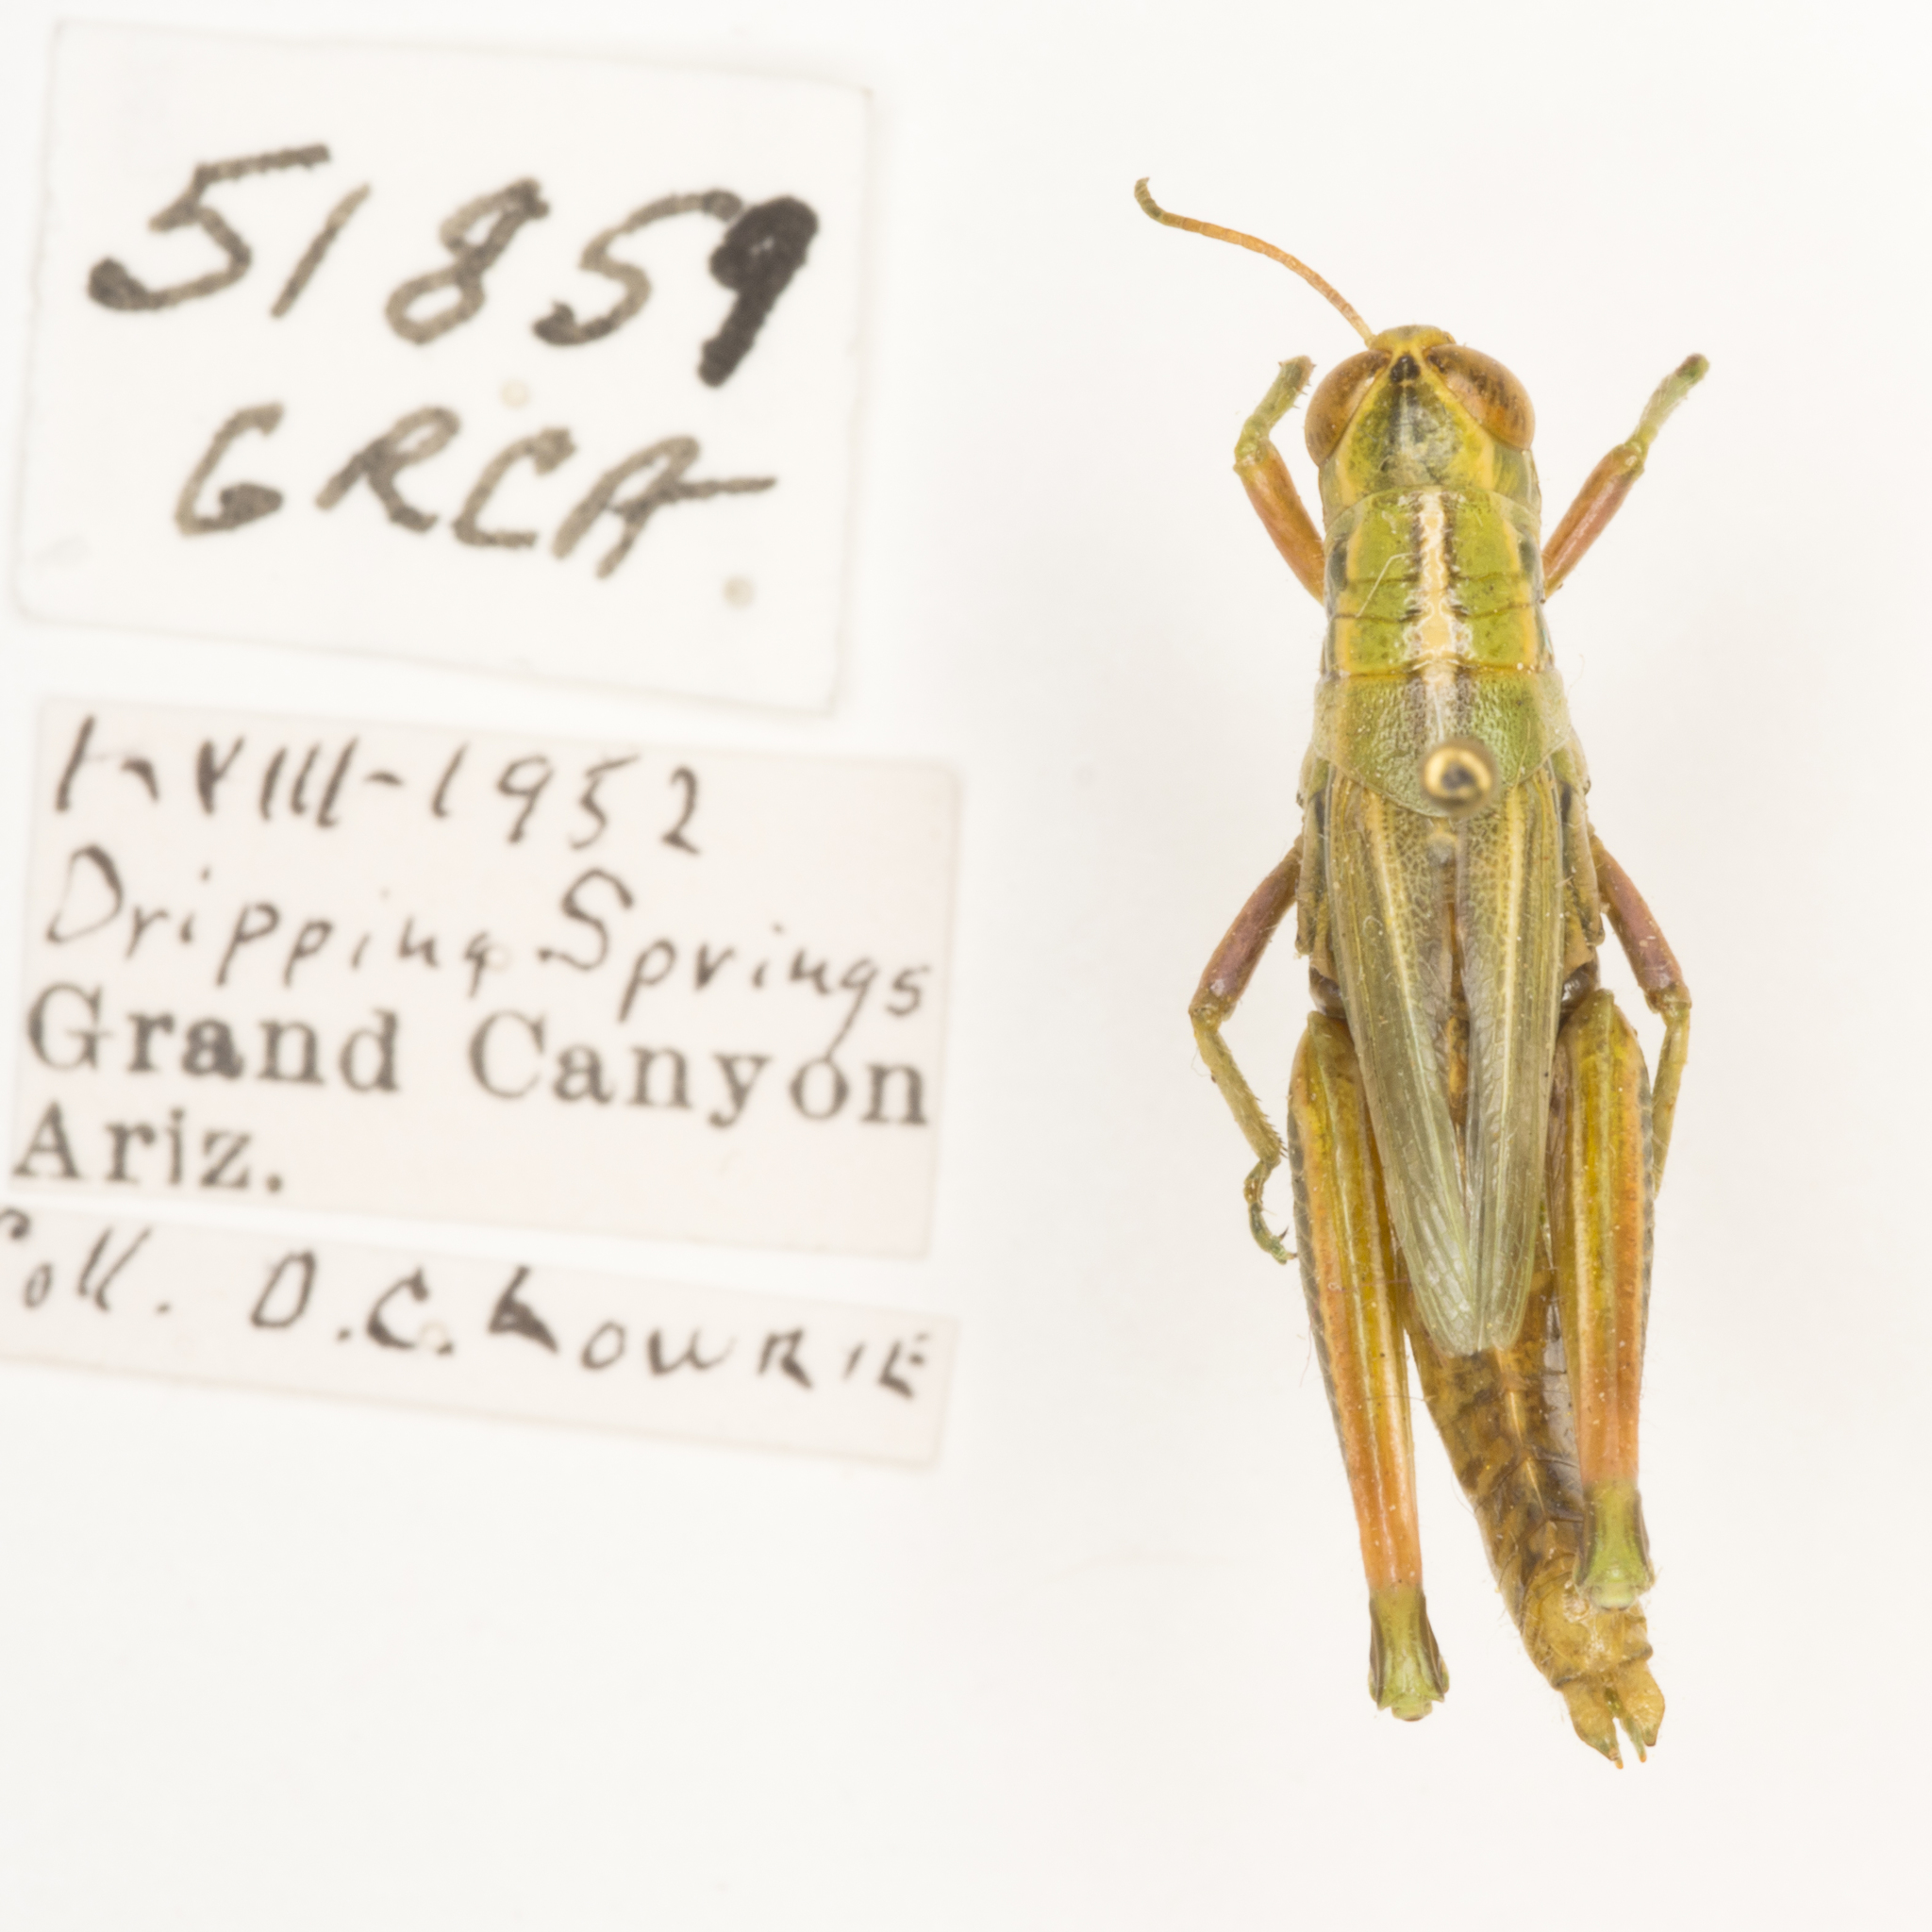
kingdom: Animalia
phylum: Arthropoda
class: Insecta
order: Orthoptera
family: Acrididae
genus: Hesperotettix
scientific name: Hesperotettix viridis
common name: Meadow purple-striped grasshopper
